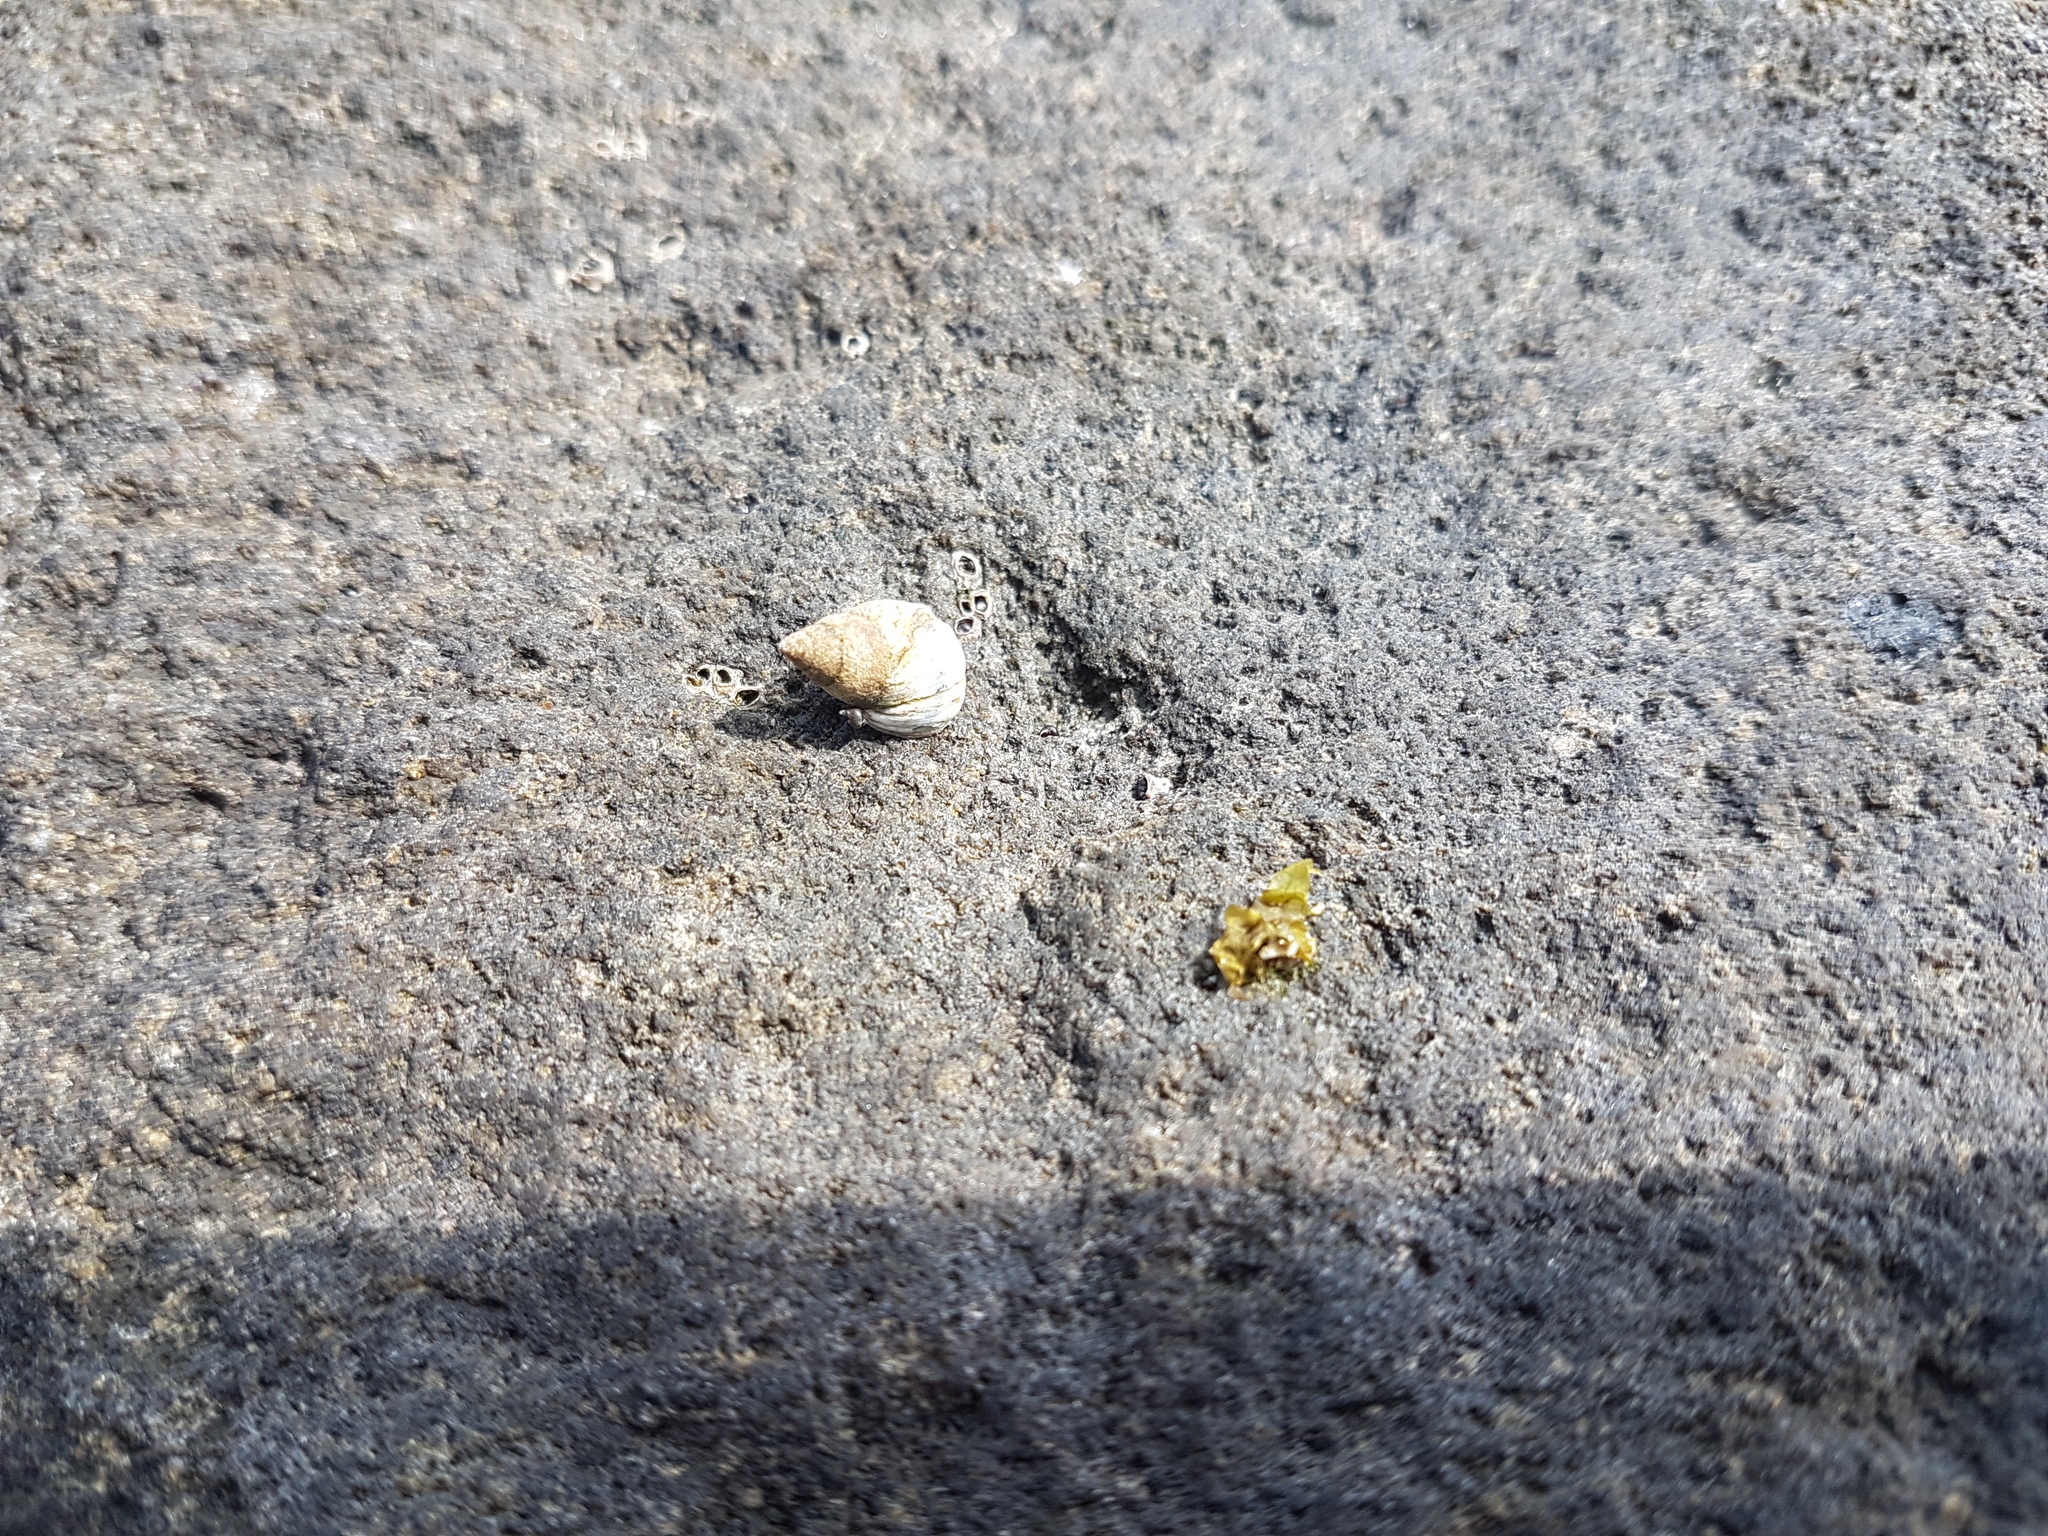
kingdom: Animalia
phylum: Mollusca
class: Gastropoda
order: Littorinimorpha
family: Littorinidae
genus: Austrolittorina
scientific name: Austrolittorina antipodum
